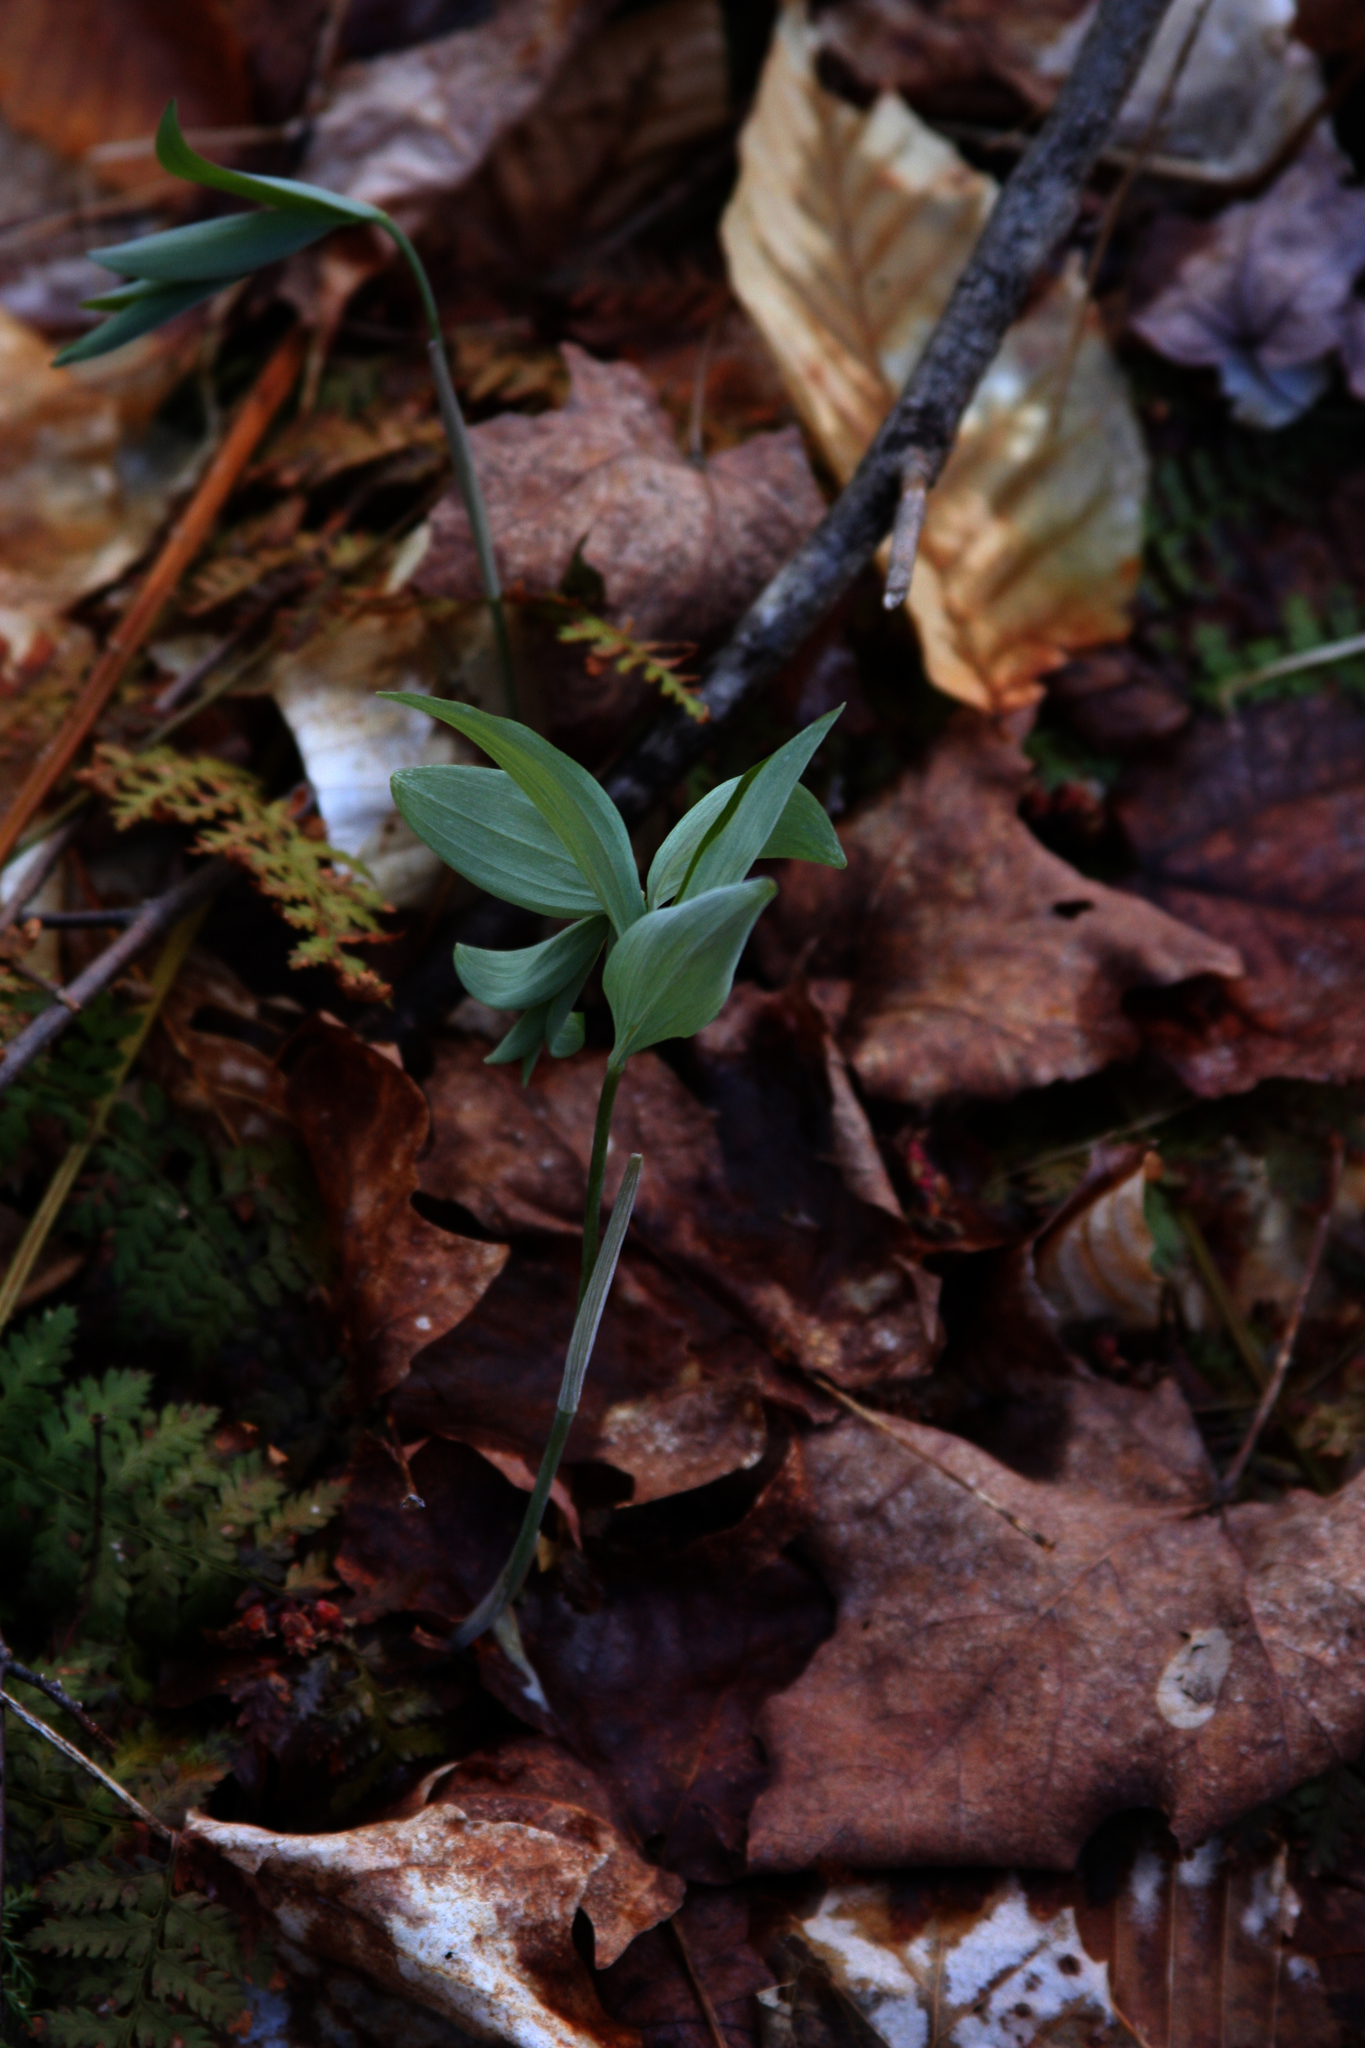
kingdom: Plantae
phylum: Tracheophyta
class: Liliopsida
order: Asparagales
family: Asparagaceae
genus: Polygonatum
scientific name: Polygonatum pubescens
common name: Downy solomon's seal
